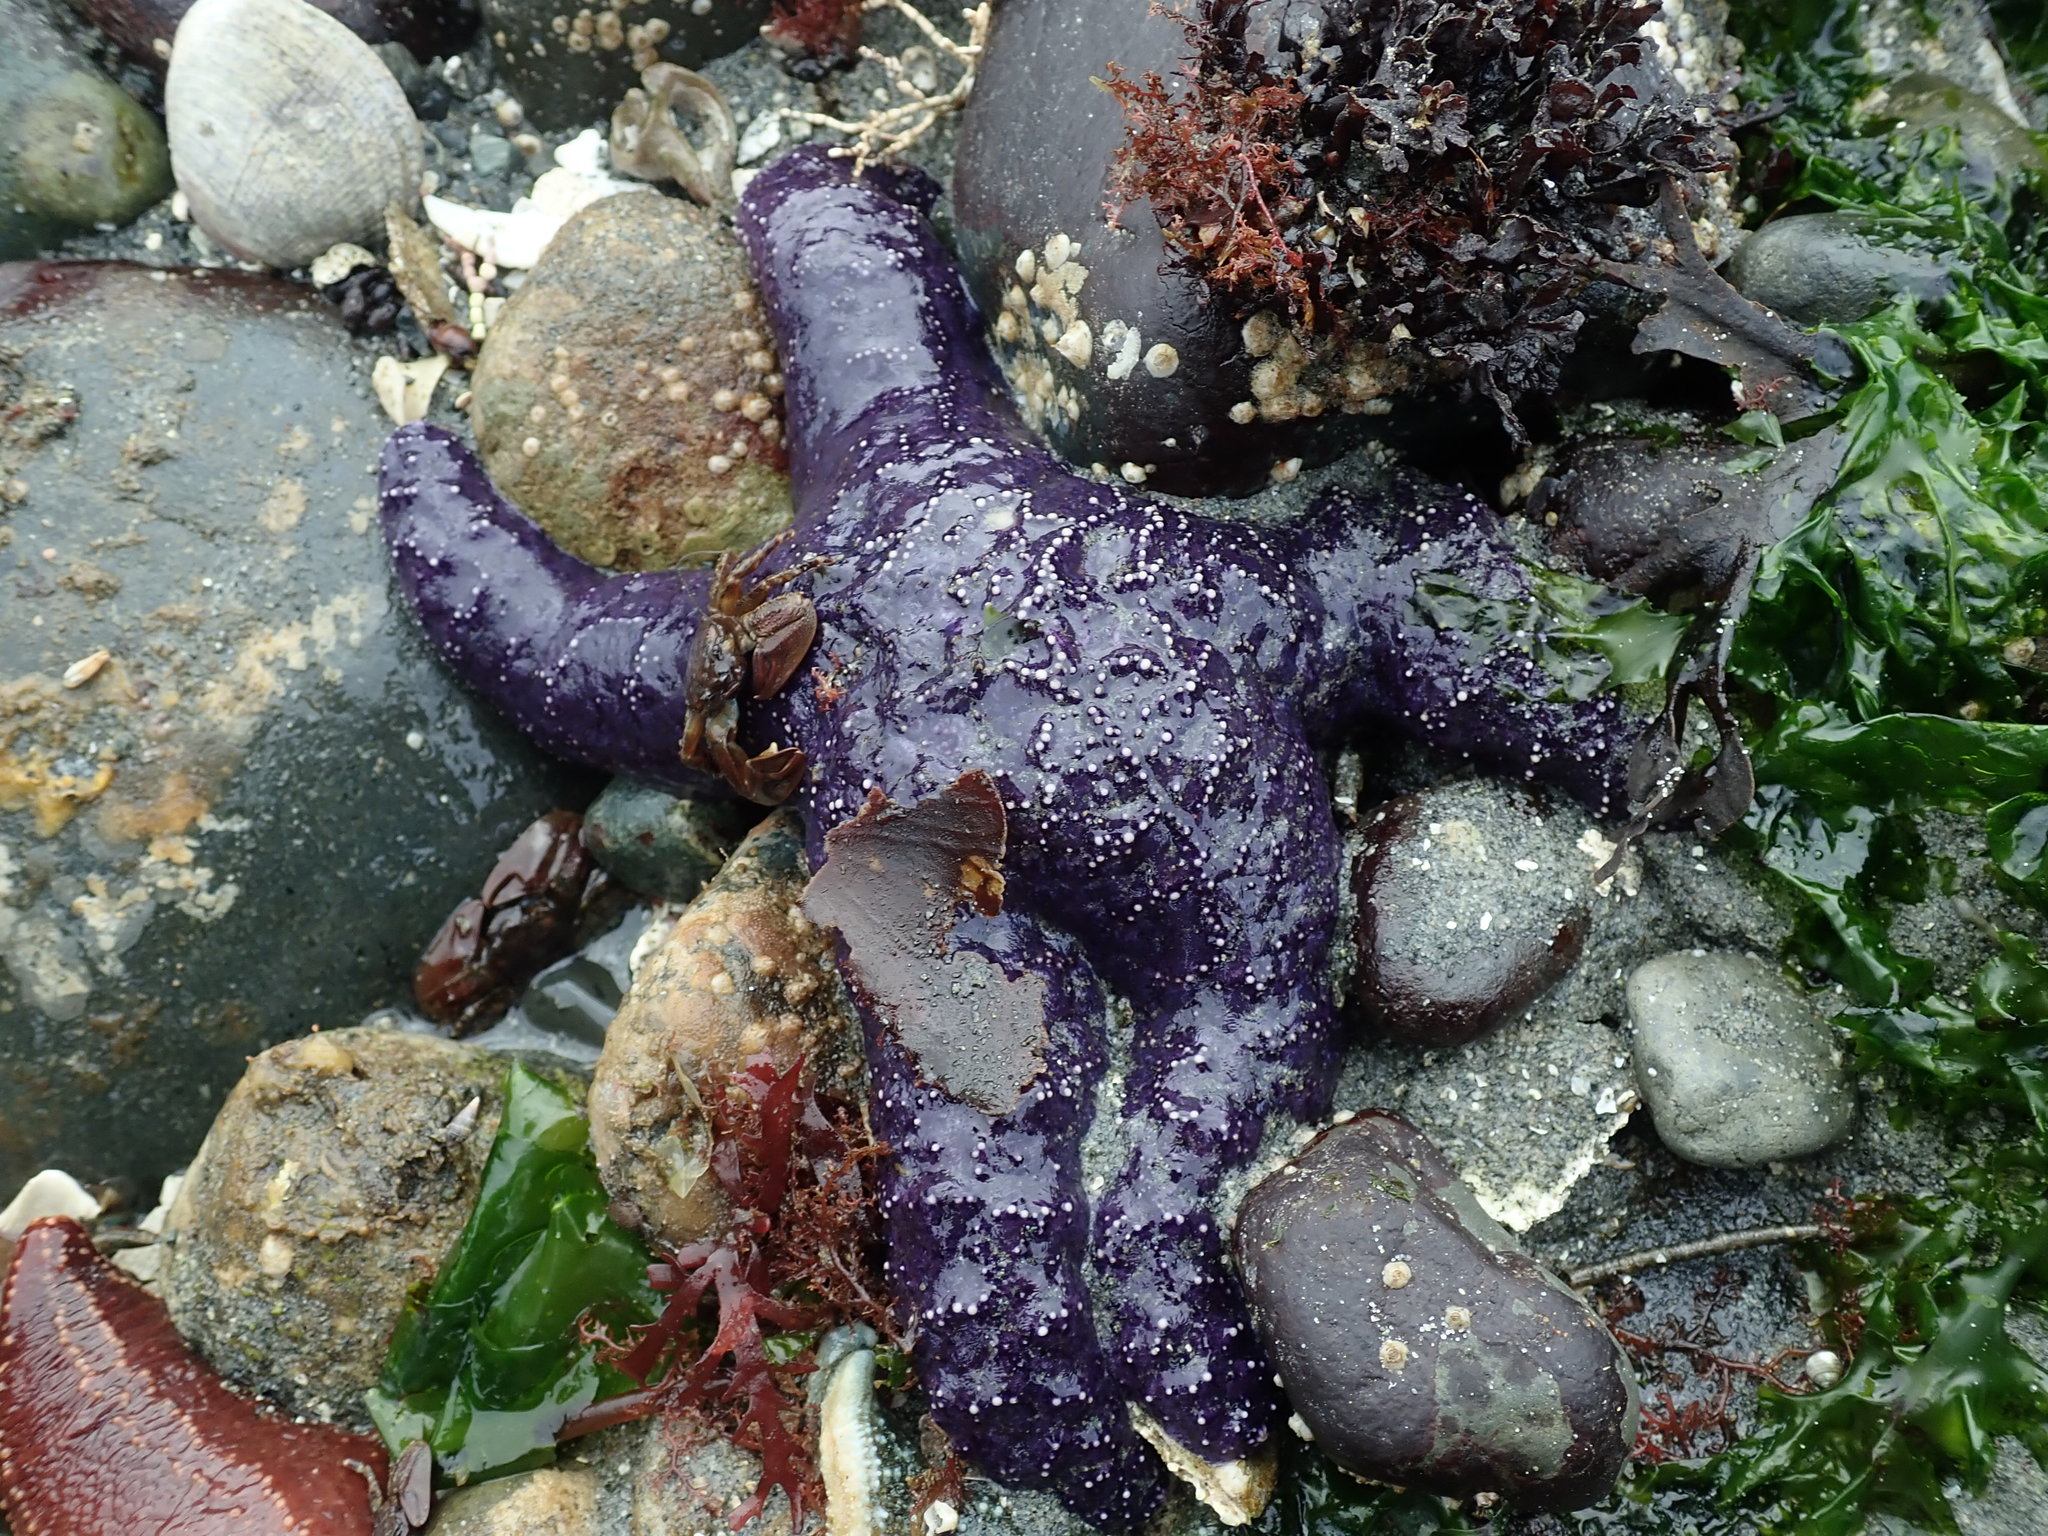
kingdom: Animalia
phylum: Echinodermata
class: Asteroidea
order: Forcipulatida
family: Asteriidae
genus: Pisaster
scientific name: Pisaster ochraceus
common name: Ochre stars
